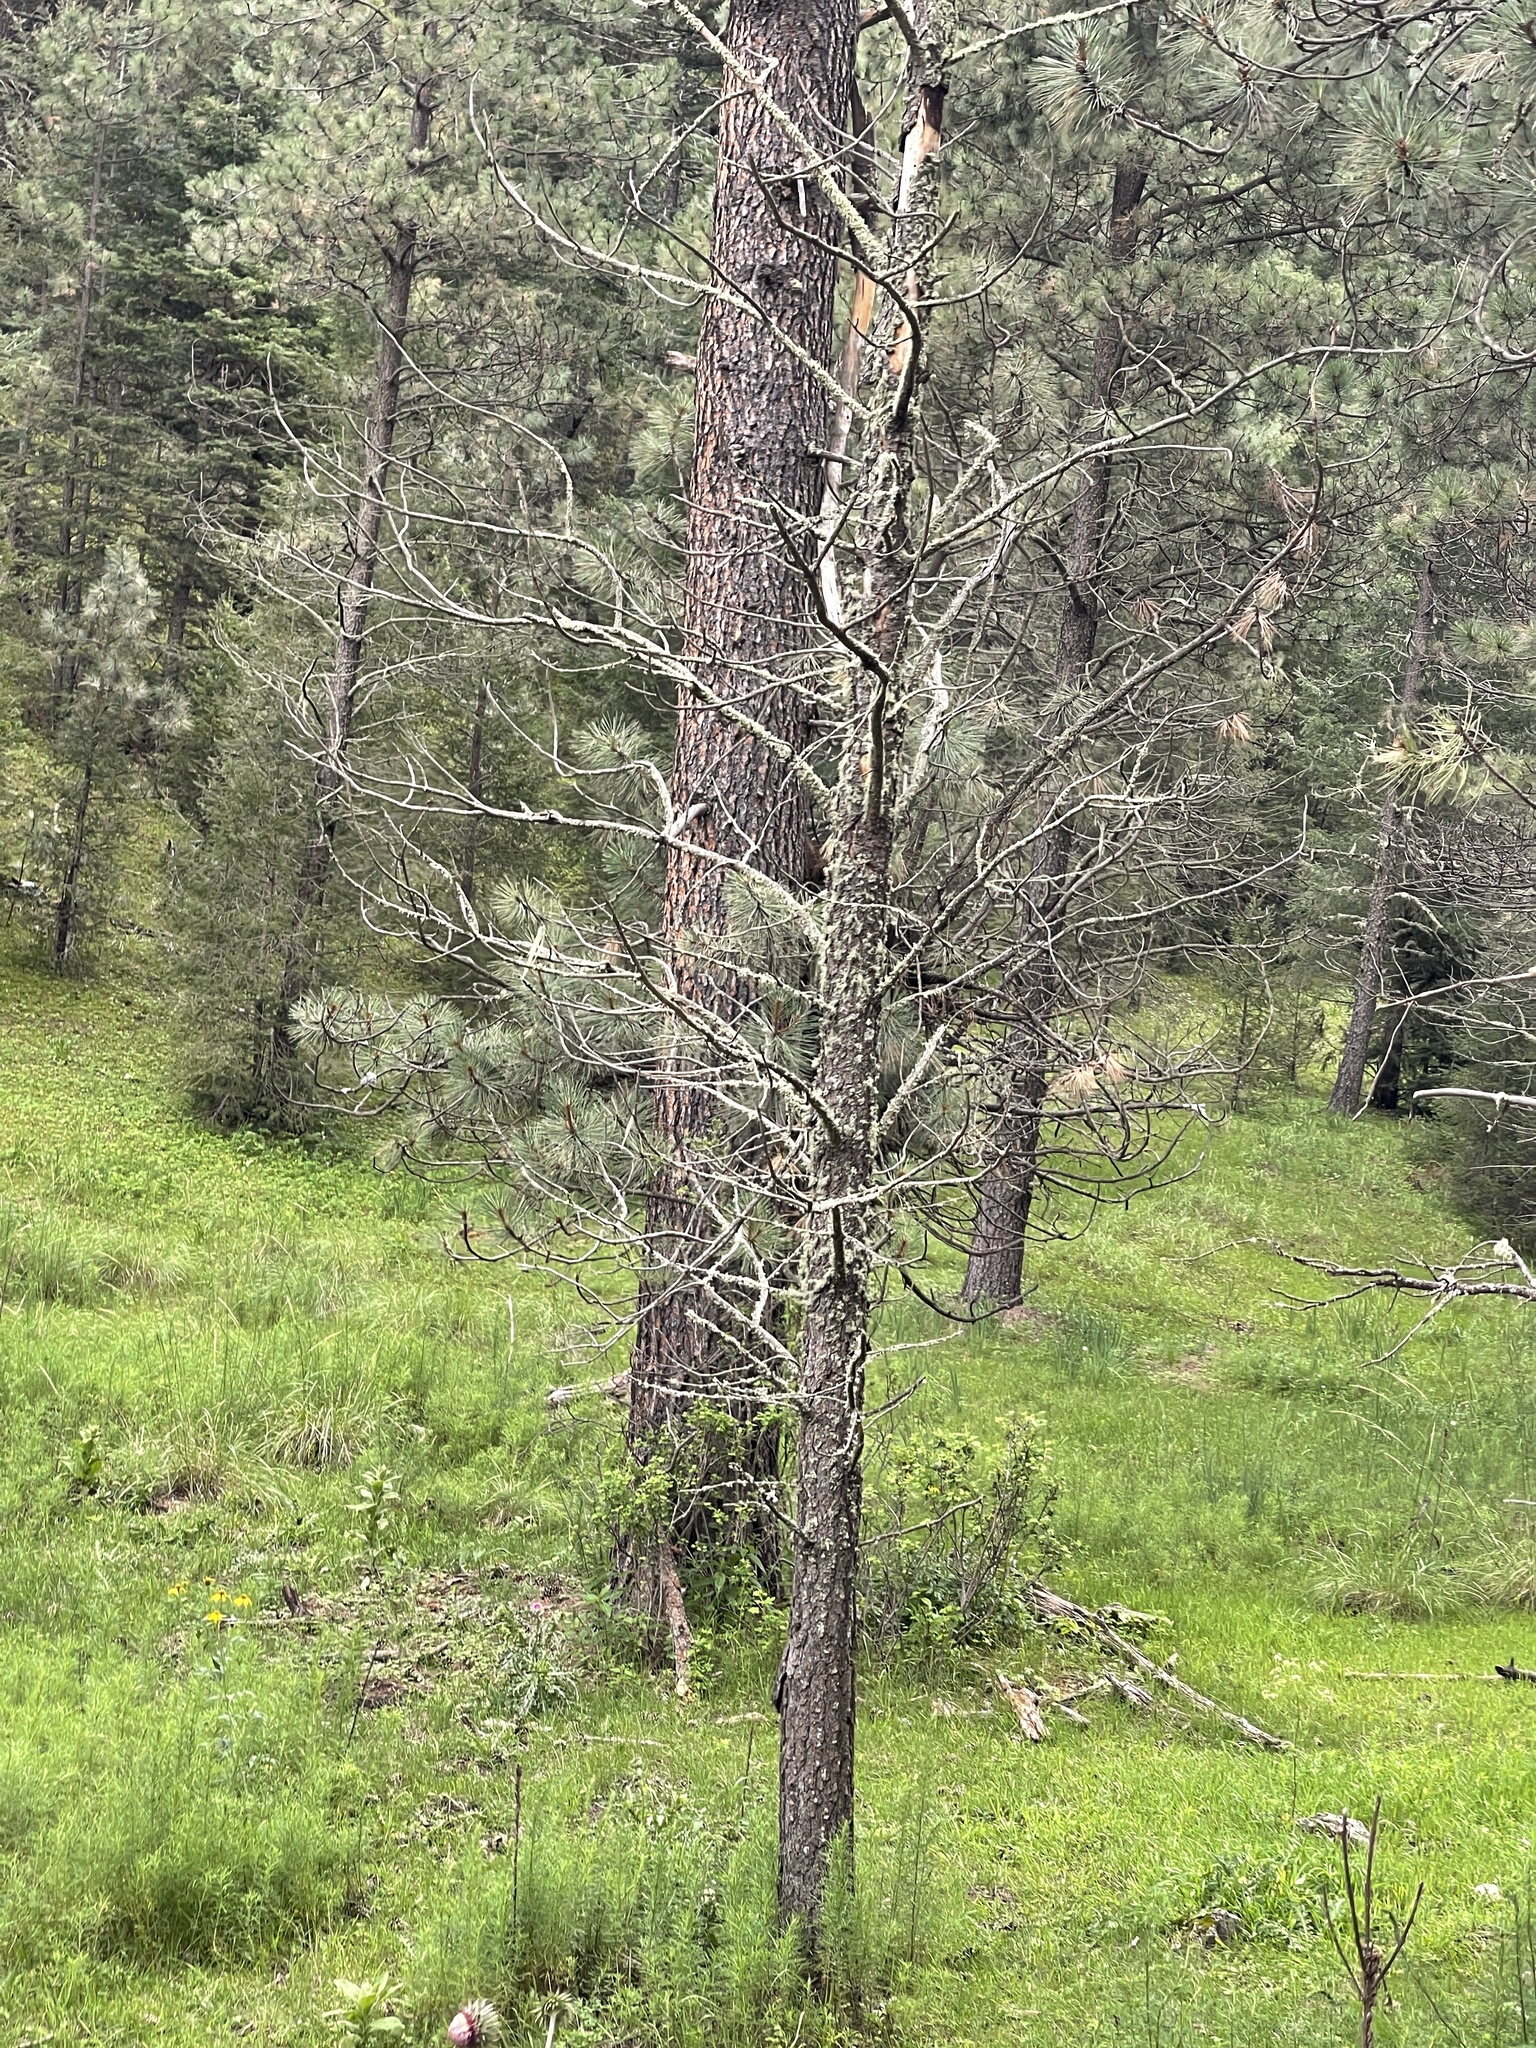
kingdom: Plantae
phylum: Tracheophyta
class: Pinopsida
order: Pinales
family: Pinaceae
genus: Pinus
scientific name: Pinus ponderosa
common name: Western yellow-pine
